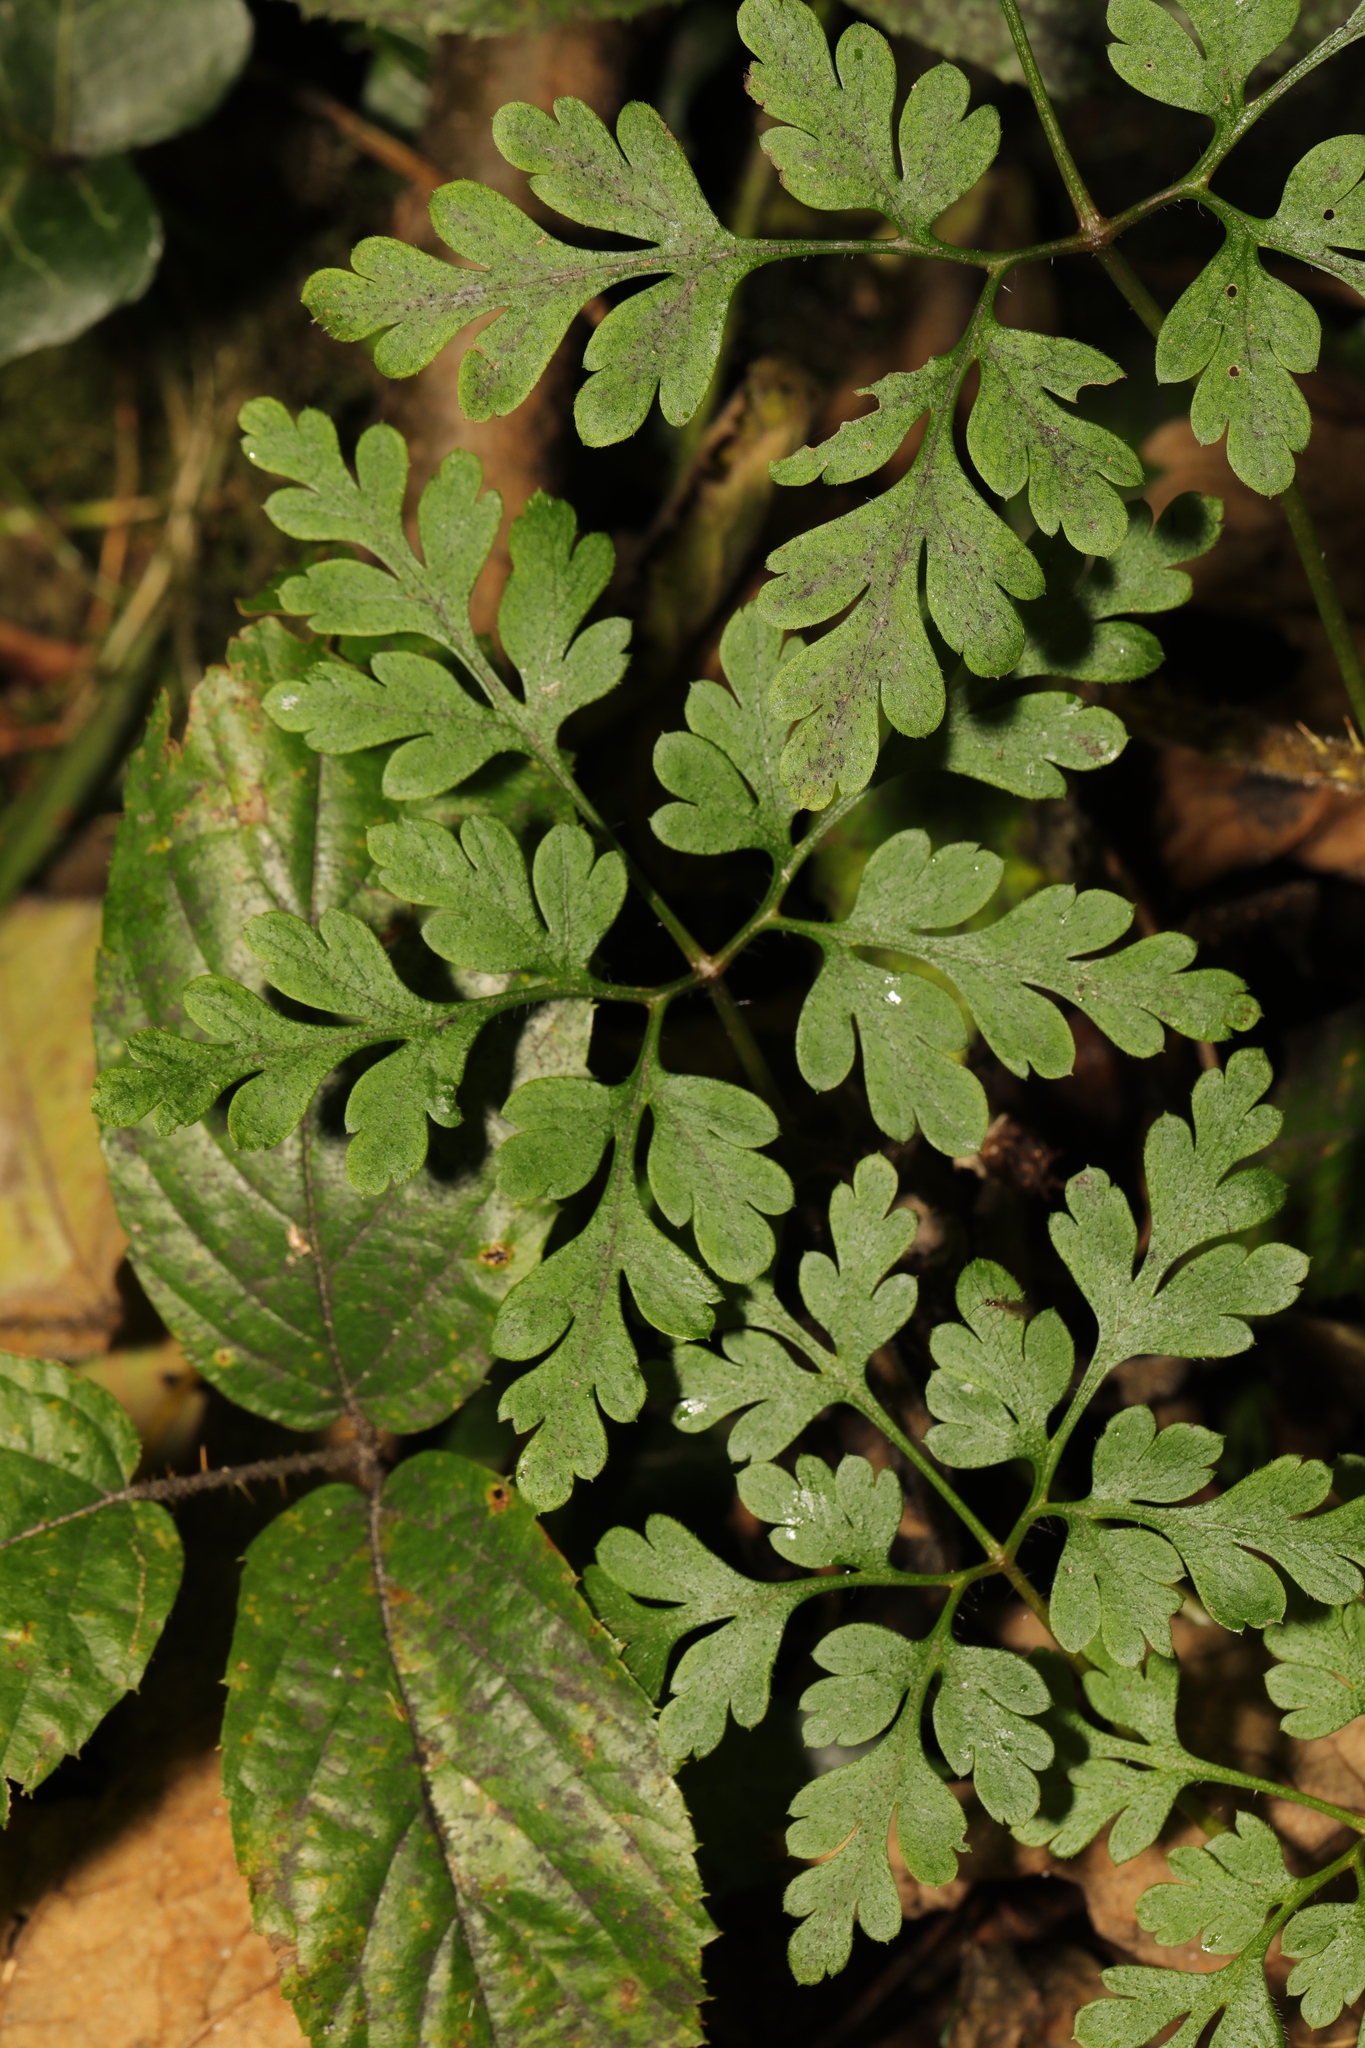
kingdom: Plantae
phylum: Tracheophyta
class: Magnoliopsida
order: Geraniales
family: Geraniaceae
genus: Geranium
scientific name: Geranium robertianum
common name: Herb-robert
